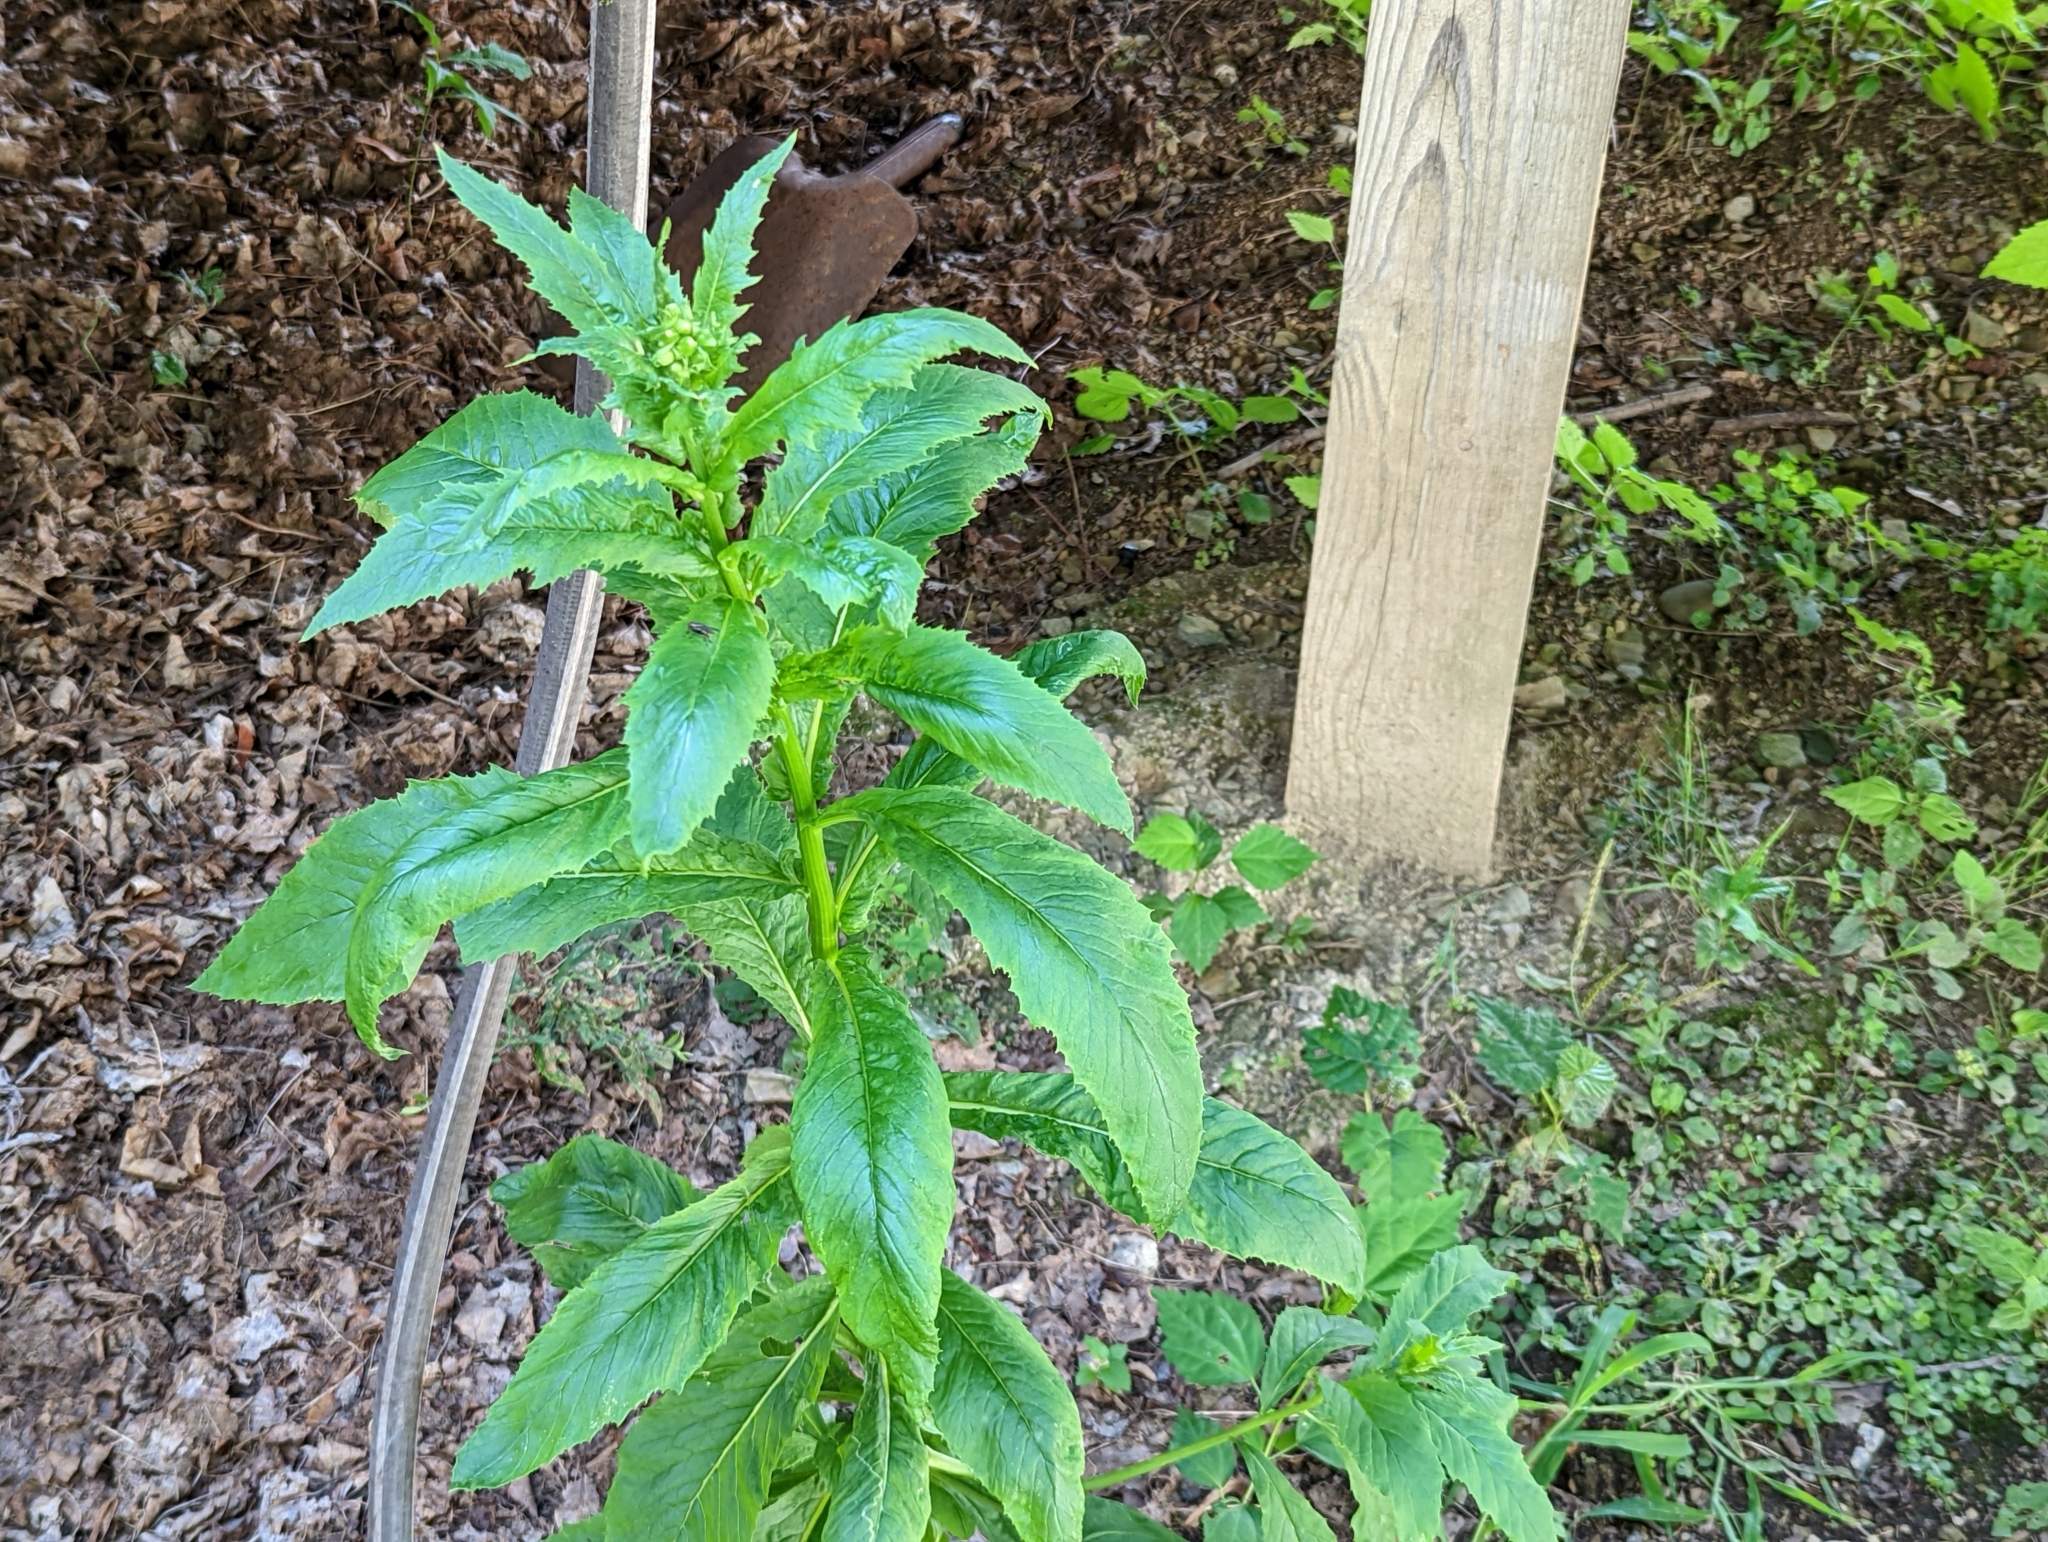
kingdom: Plantae
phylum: Tracheophyta
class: Magnoliopsida
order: Asterales
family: Asteraceae
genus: Erechtites
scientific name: Erechtites hieraciifolius
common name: American burnweed
